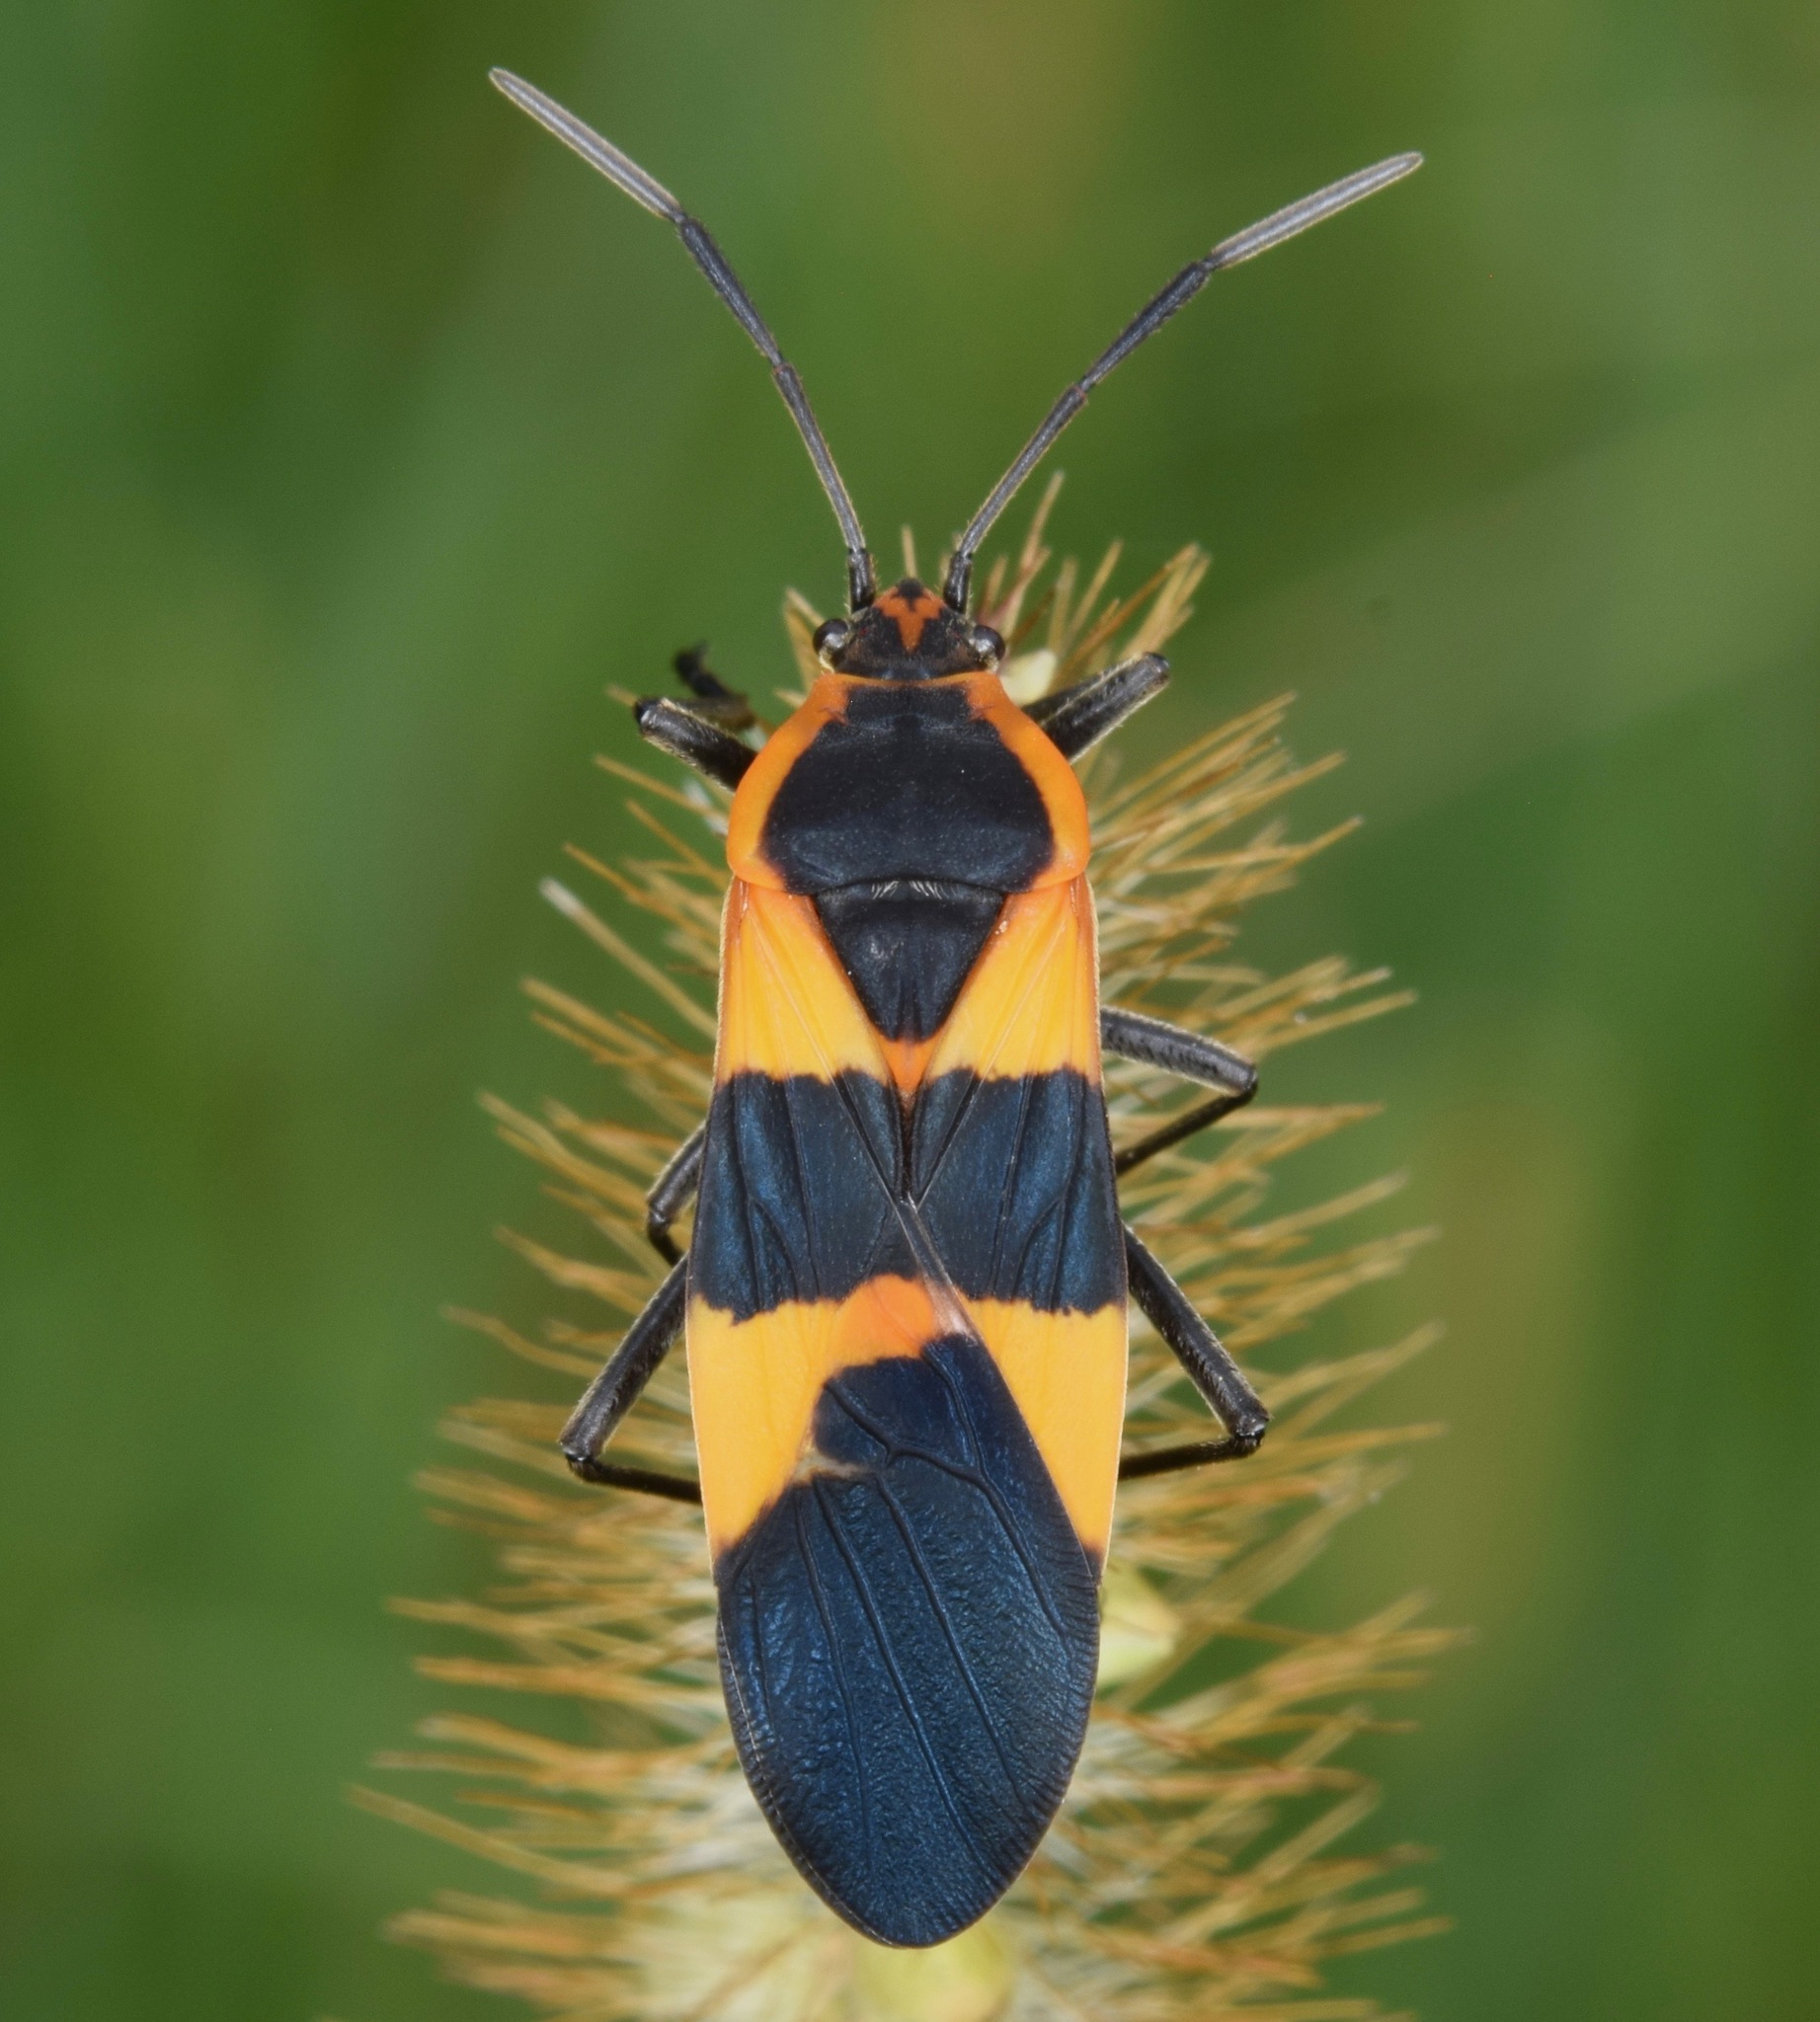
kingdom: Animalia
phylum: Arthropoda
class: Insecta
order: Hemiptera
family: Lygaeidae
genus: Oncopeltus
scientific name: Oncopeltus fasciatus
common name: Large milkweed bug
